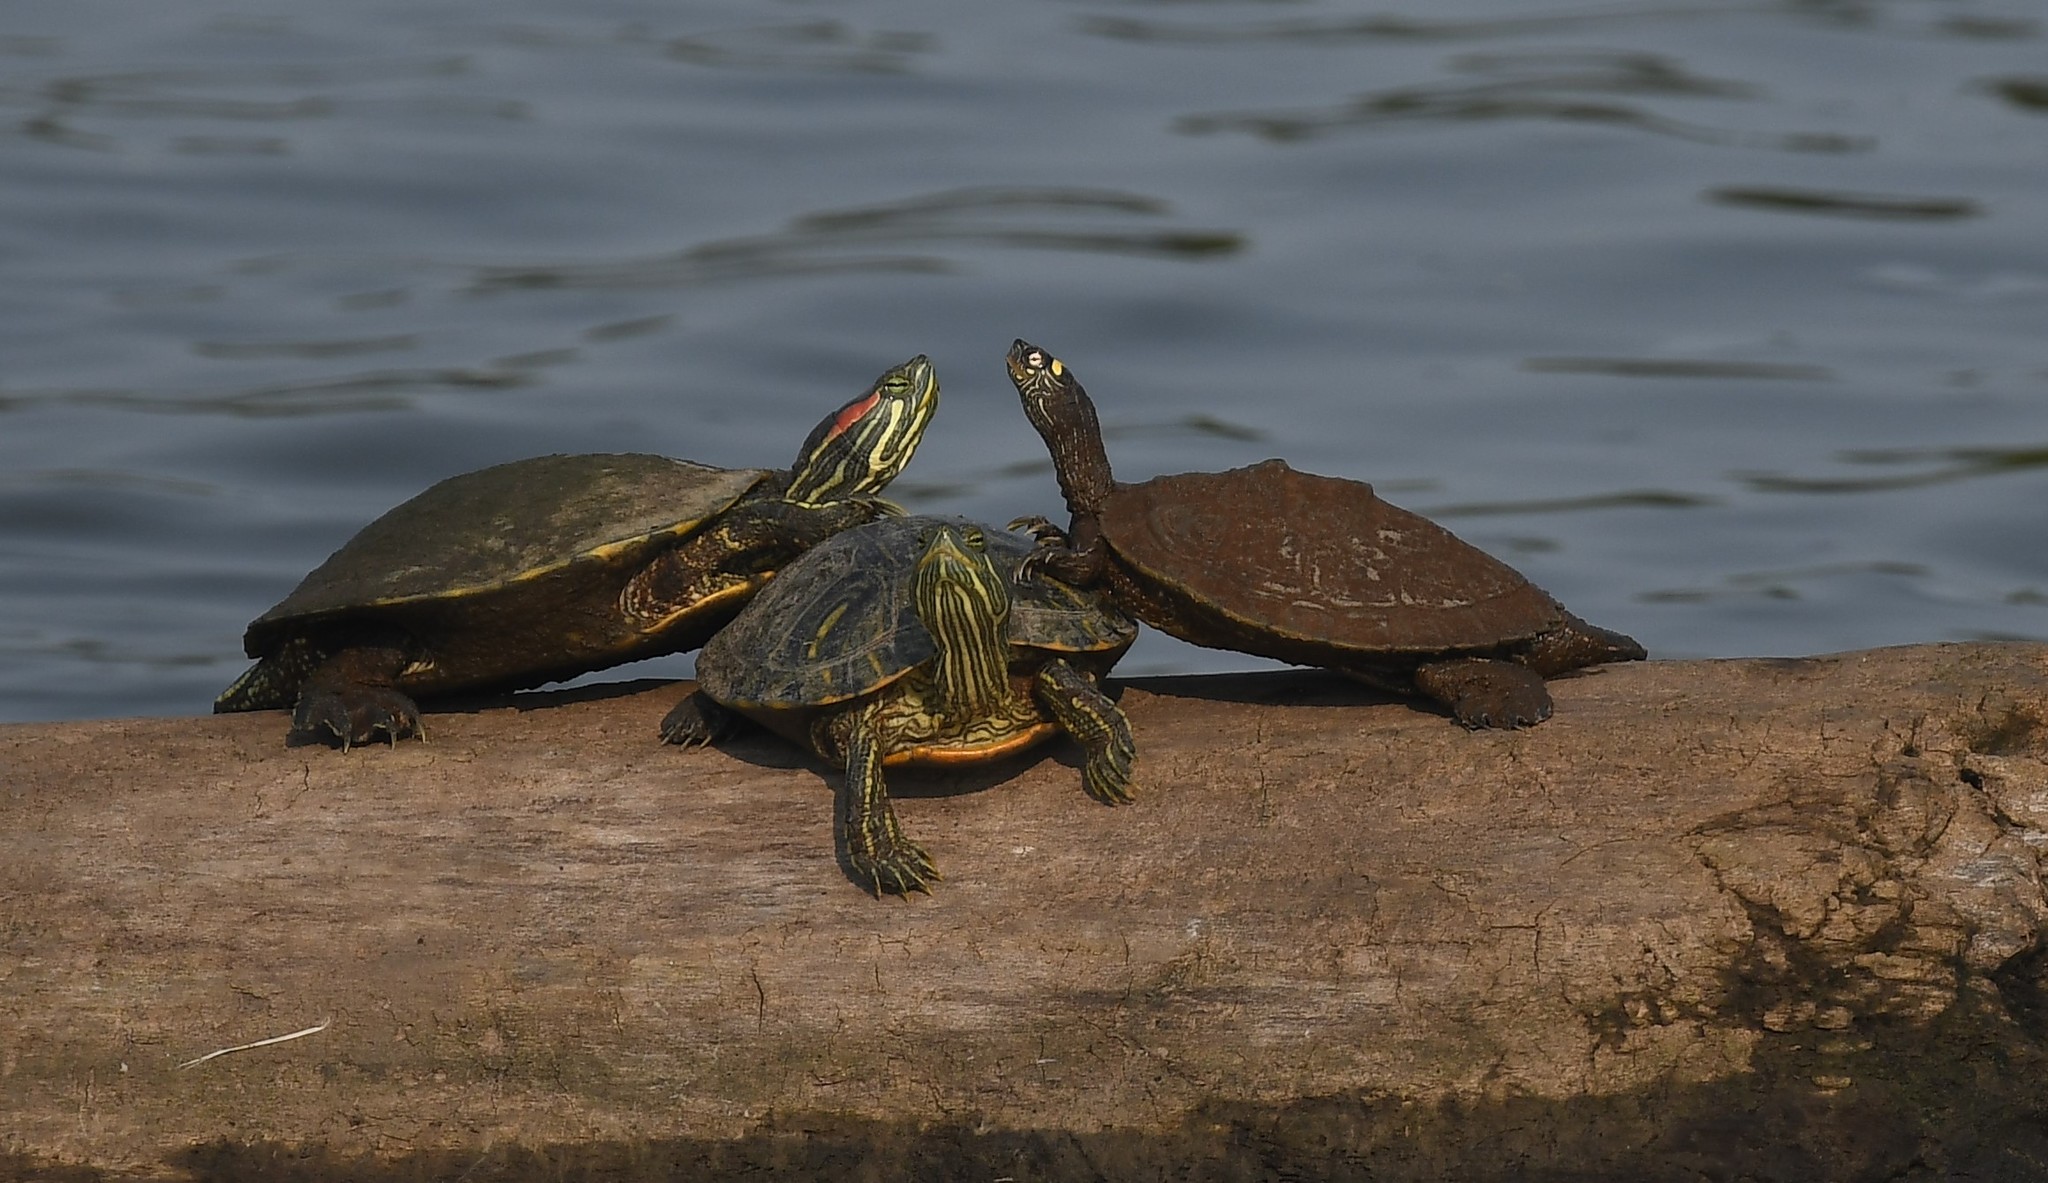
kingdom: Animalia
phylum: Chordata
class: Testudines
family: Emydidae
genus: Graptemys
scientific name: Graptemys ouachitensis
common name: Ouachita map turtle
